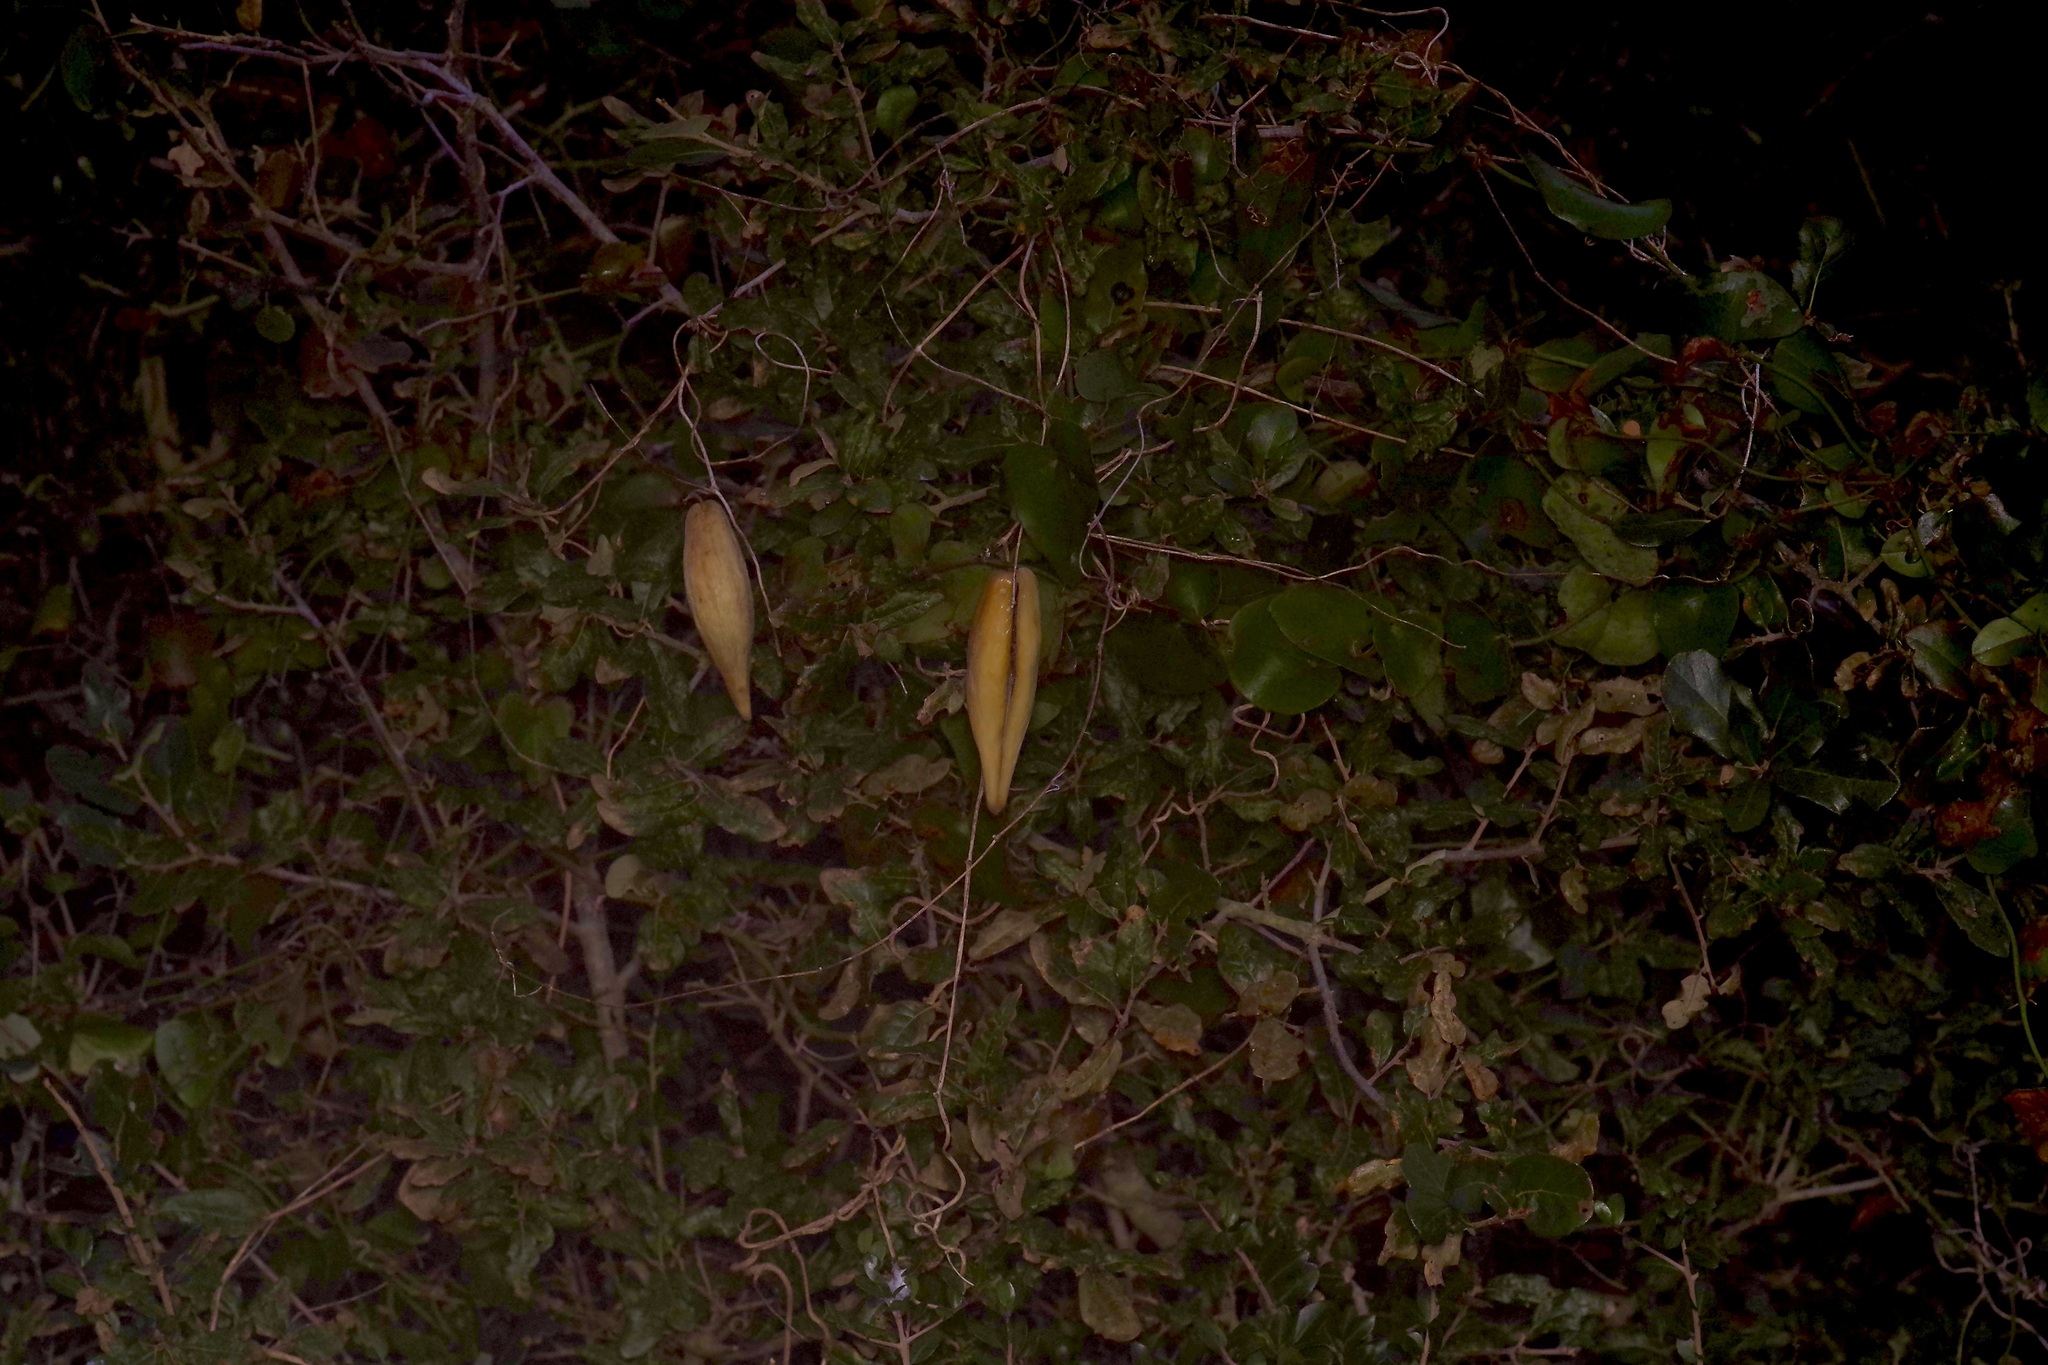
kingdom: Plantae
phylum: Tracheophyta
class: Magnoliopsida
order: Gentianales
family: Apocynaceae
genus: Cynanchum
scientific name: Cynanchum racemosum
